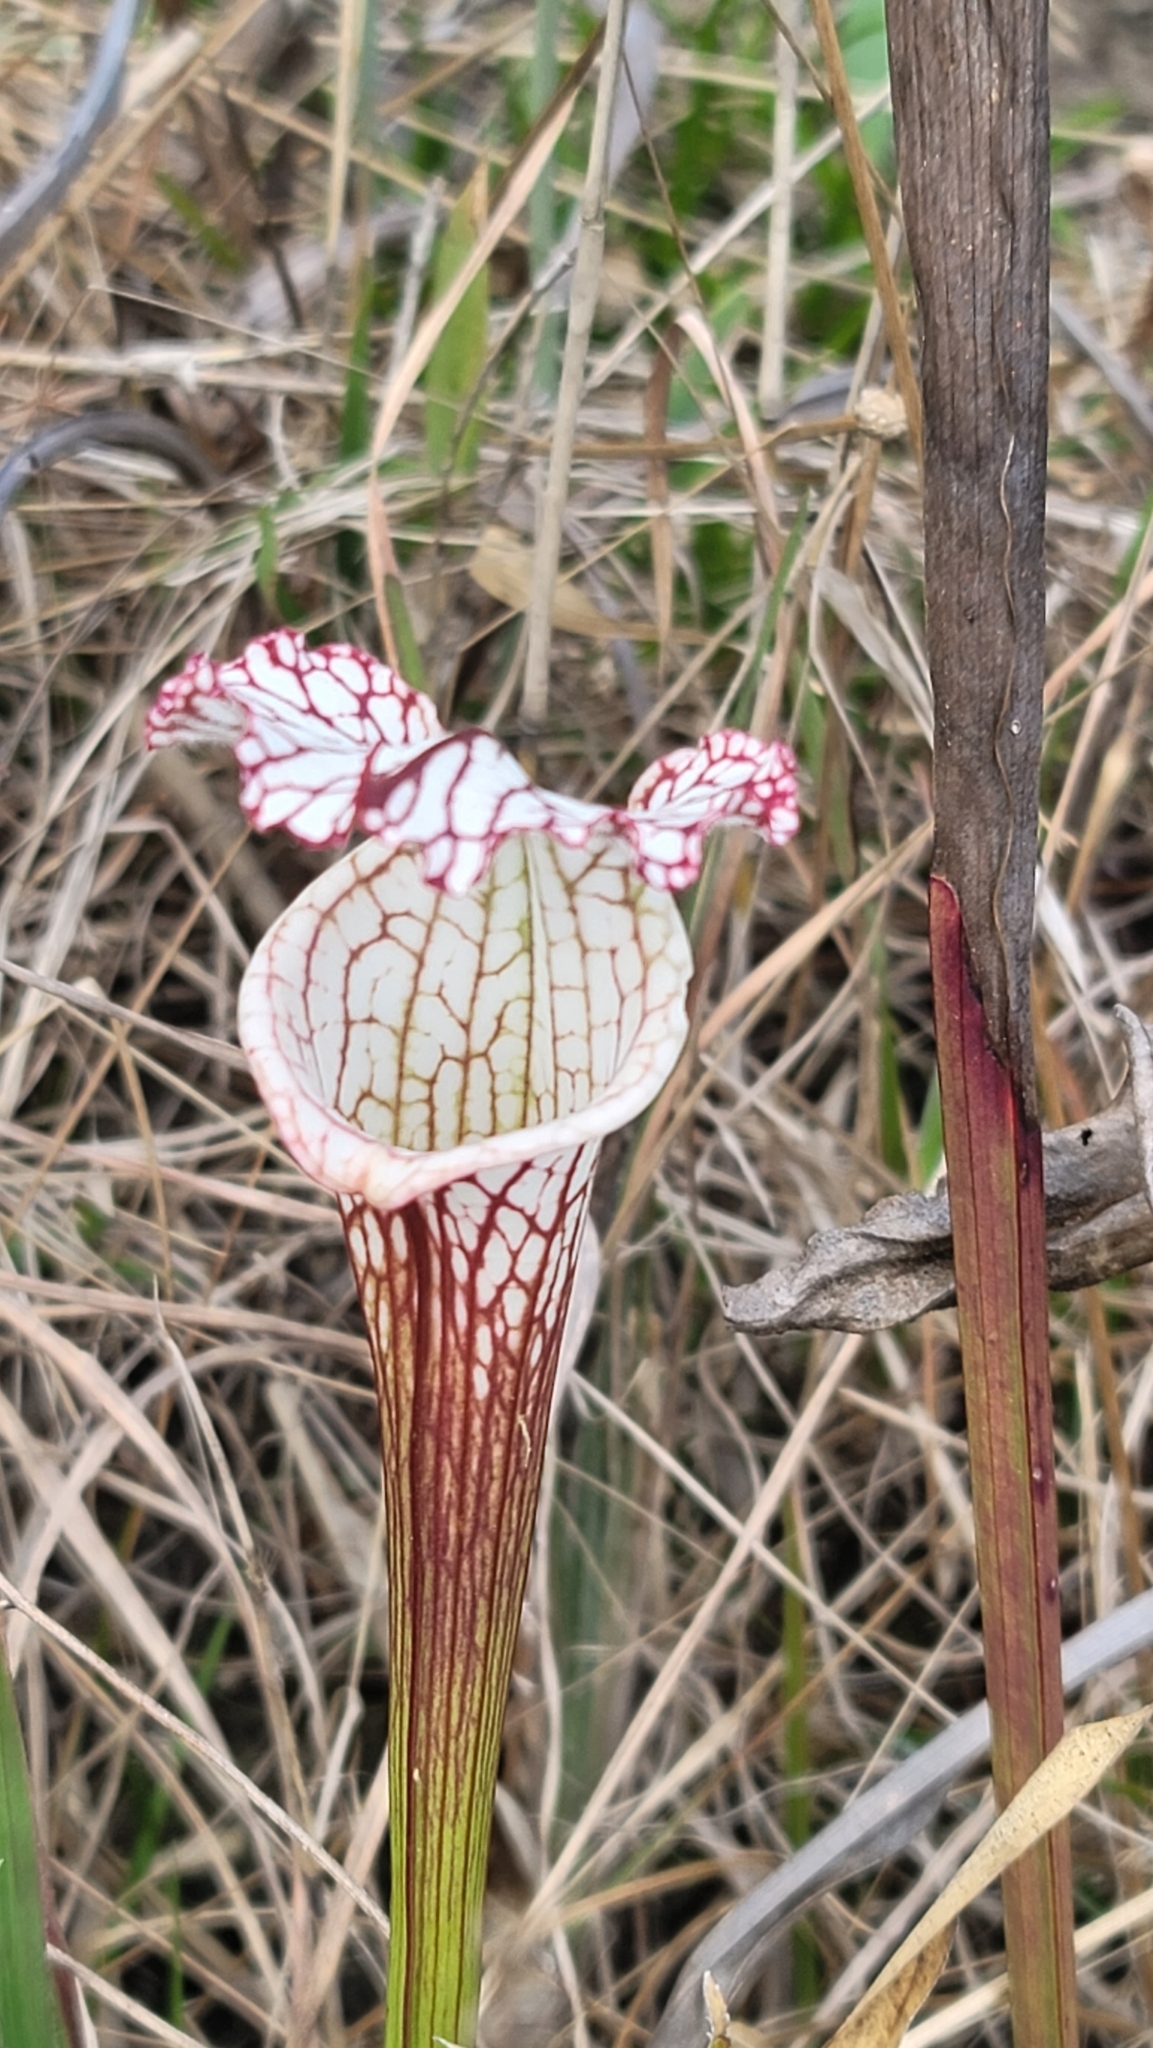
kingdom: Plantae
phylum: Tracheophyta
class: Magnoliopsida
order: Ericales
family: Sarraceniaceae
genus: Sarracenia
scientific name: Sarracenia leucophylla
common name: Purple trumpetleaf
